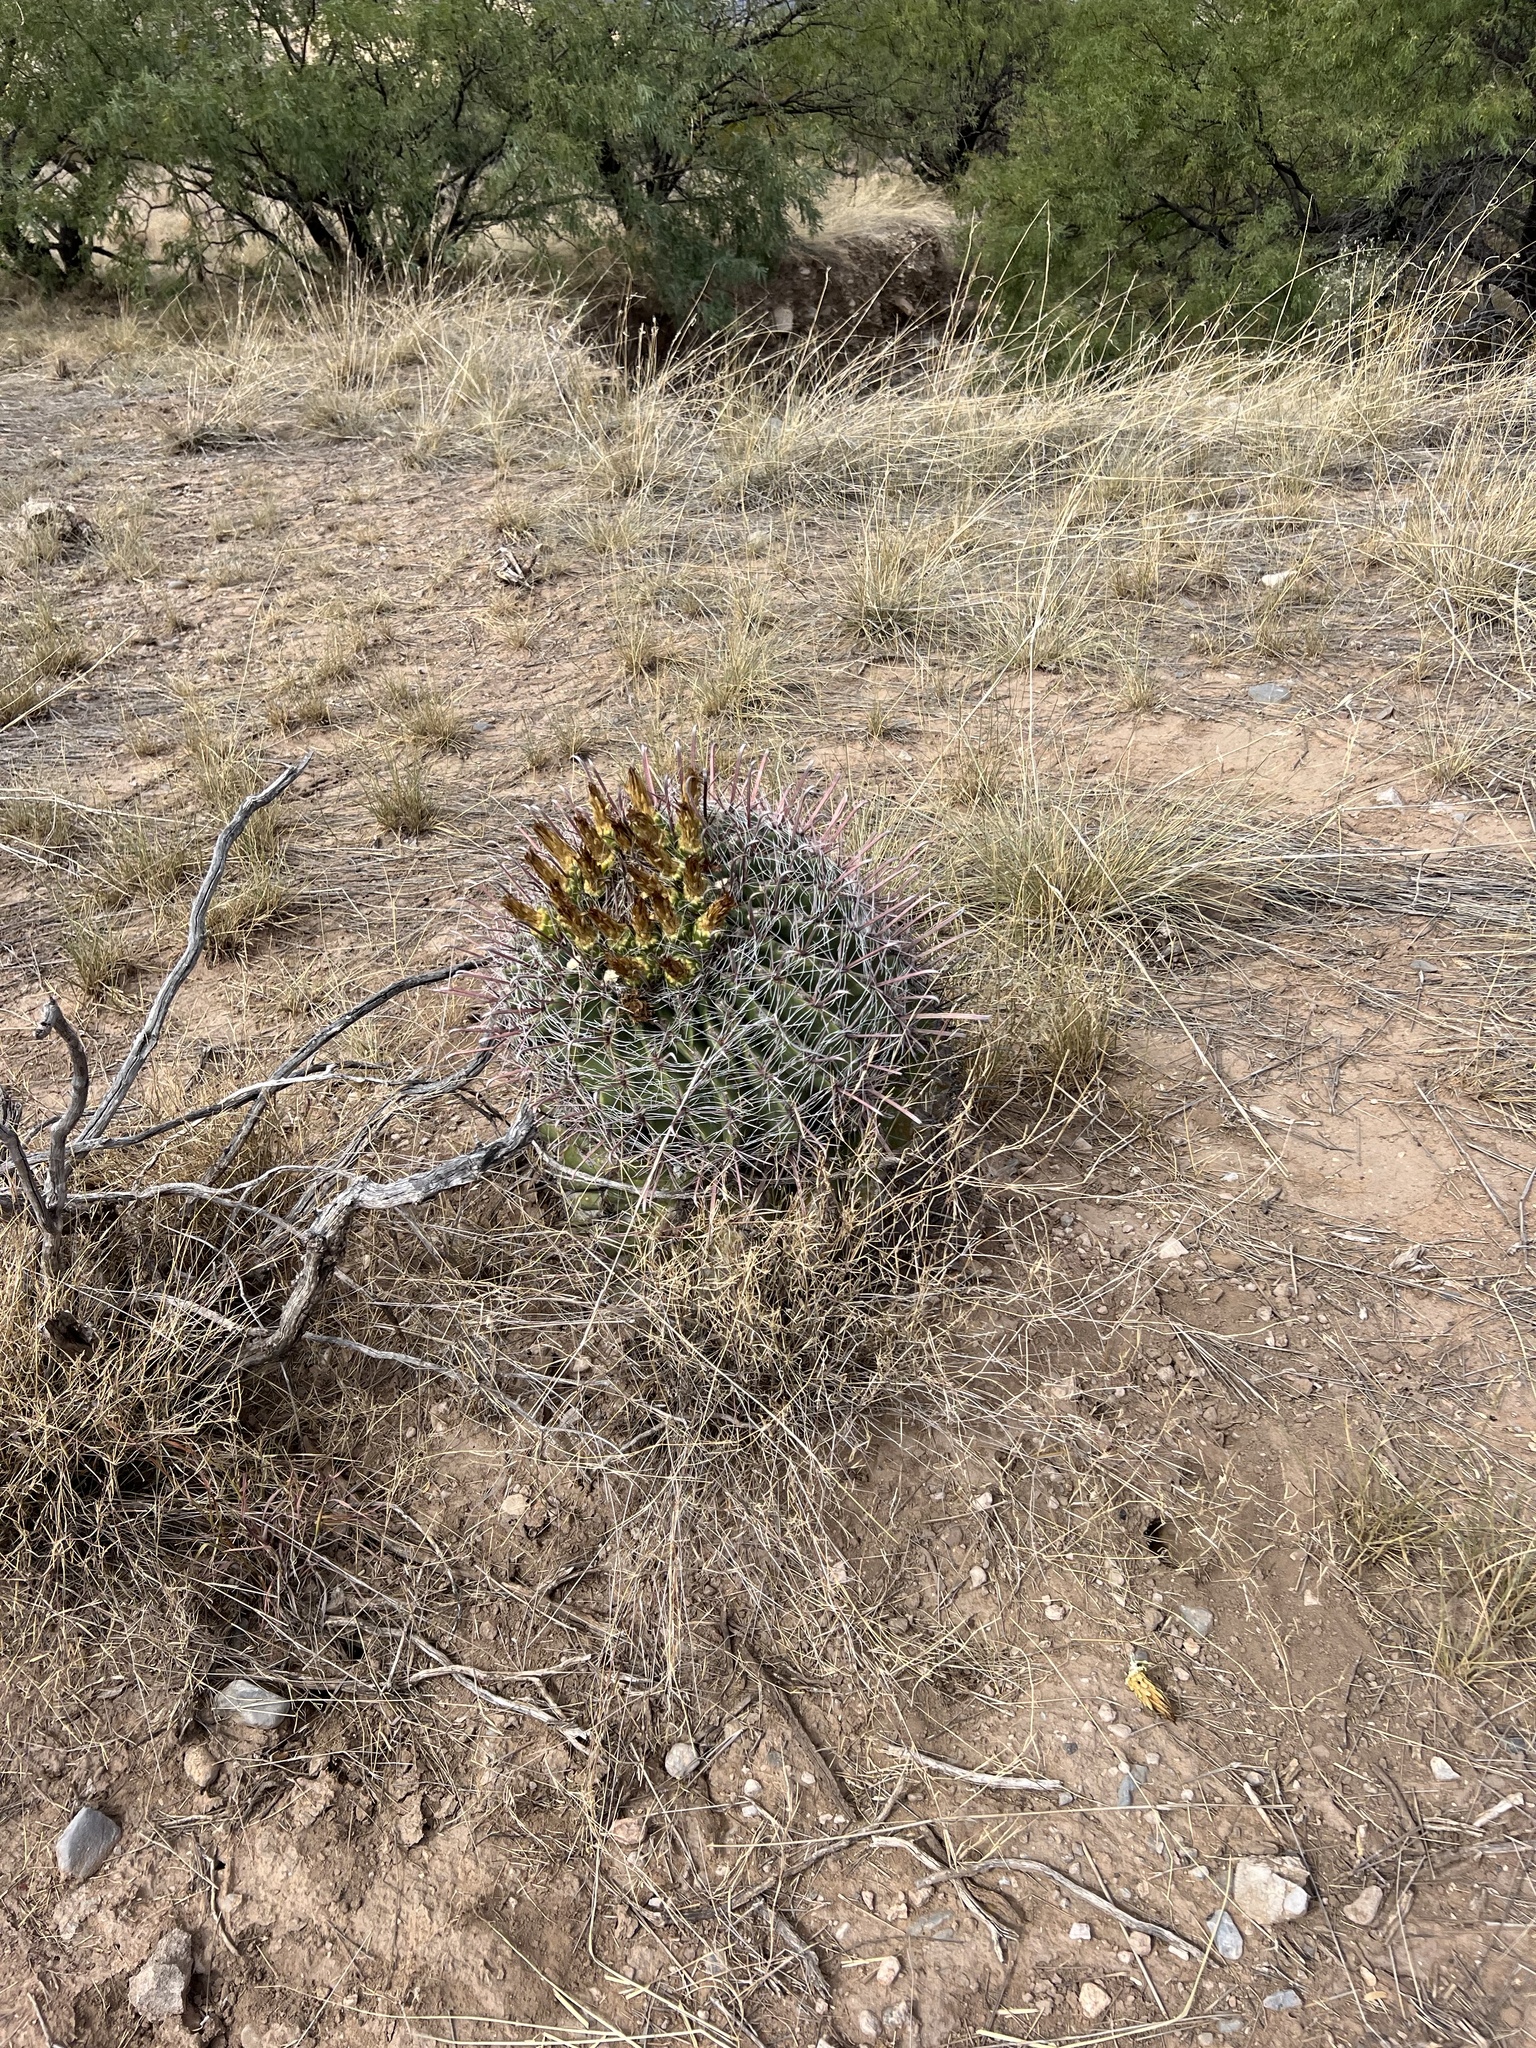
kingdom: Plantae
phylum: Tracheophyta
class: Magnoliopsida
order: Caryophyllales
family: Cactaceae
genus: Ferocactus
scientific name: Ferocactus wislizeni
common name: Candy barrel cactus
